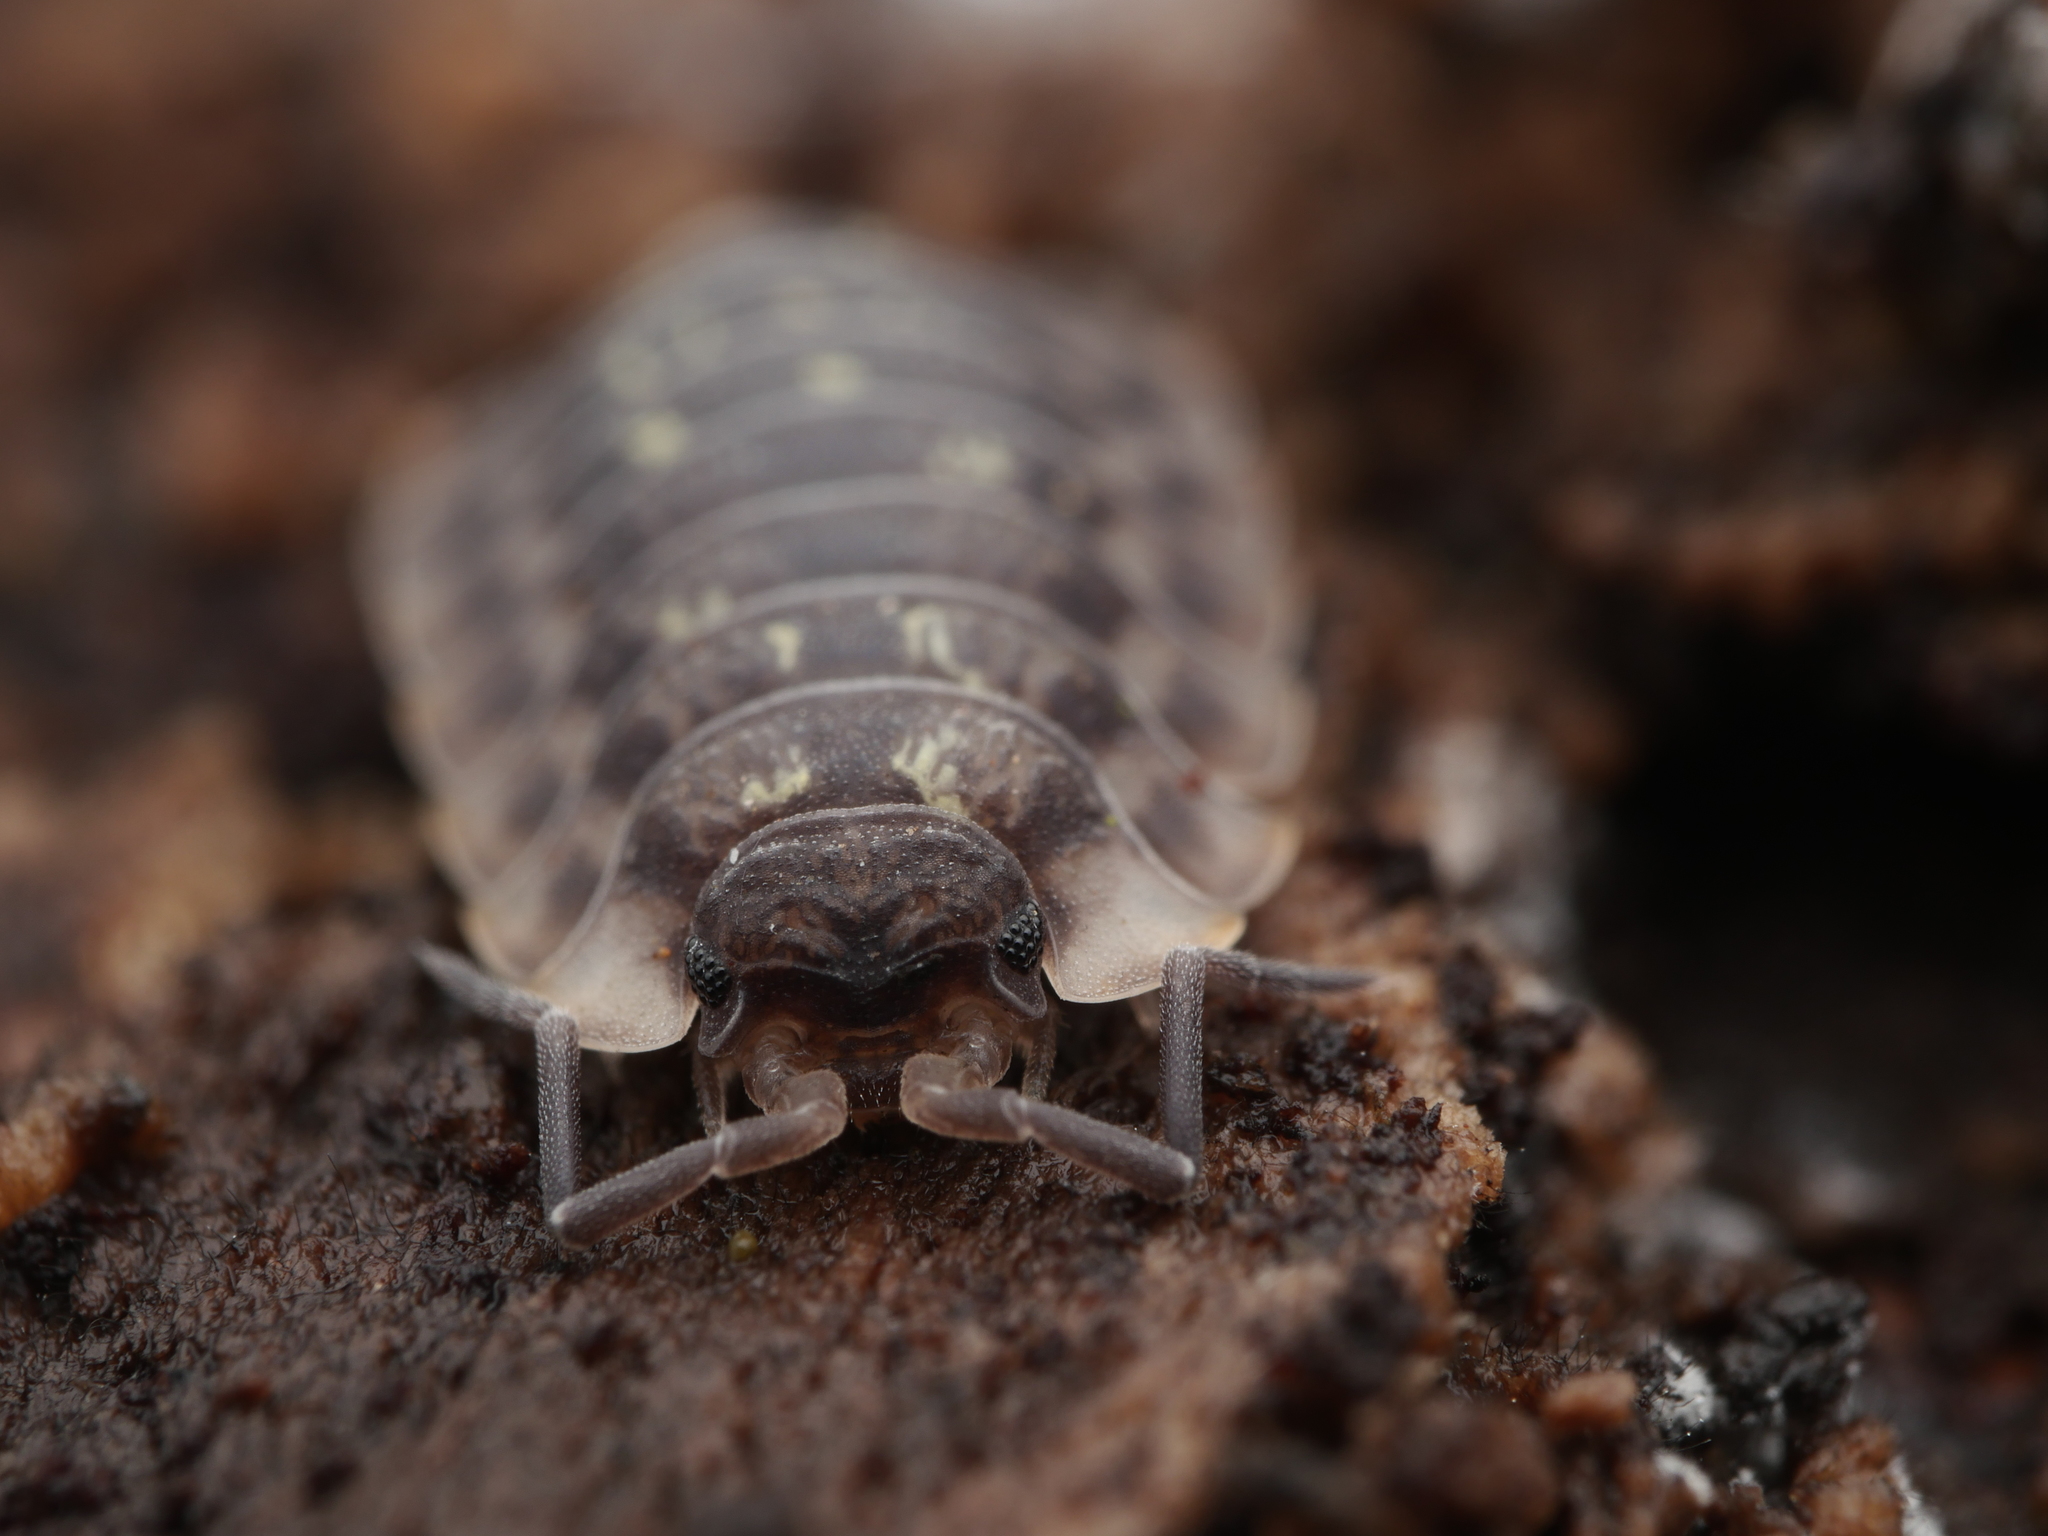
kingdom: Animalia
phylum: Arthropoda
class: Malacostraca
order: Isopoda
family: Oniscidae
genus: Oniscus
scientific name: Oniscus asellus
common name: Common shiny woodlouse
